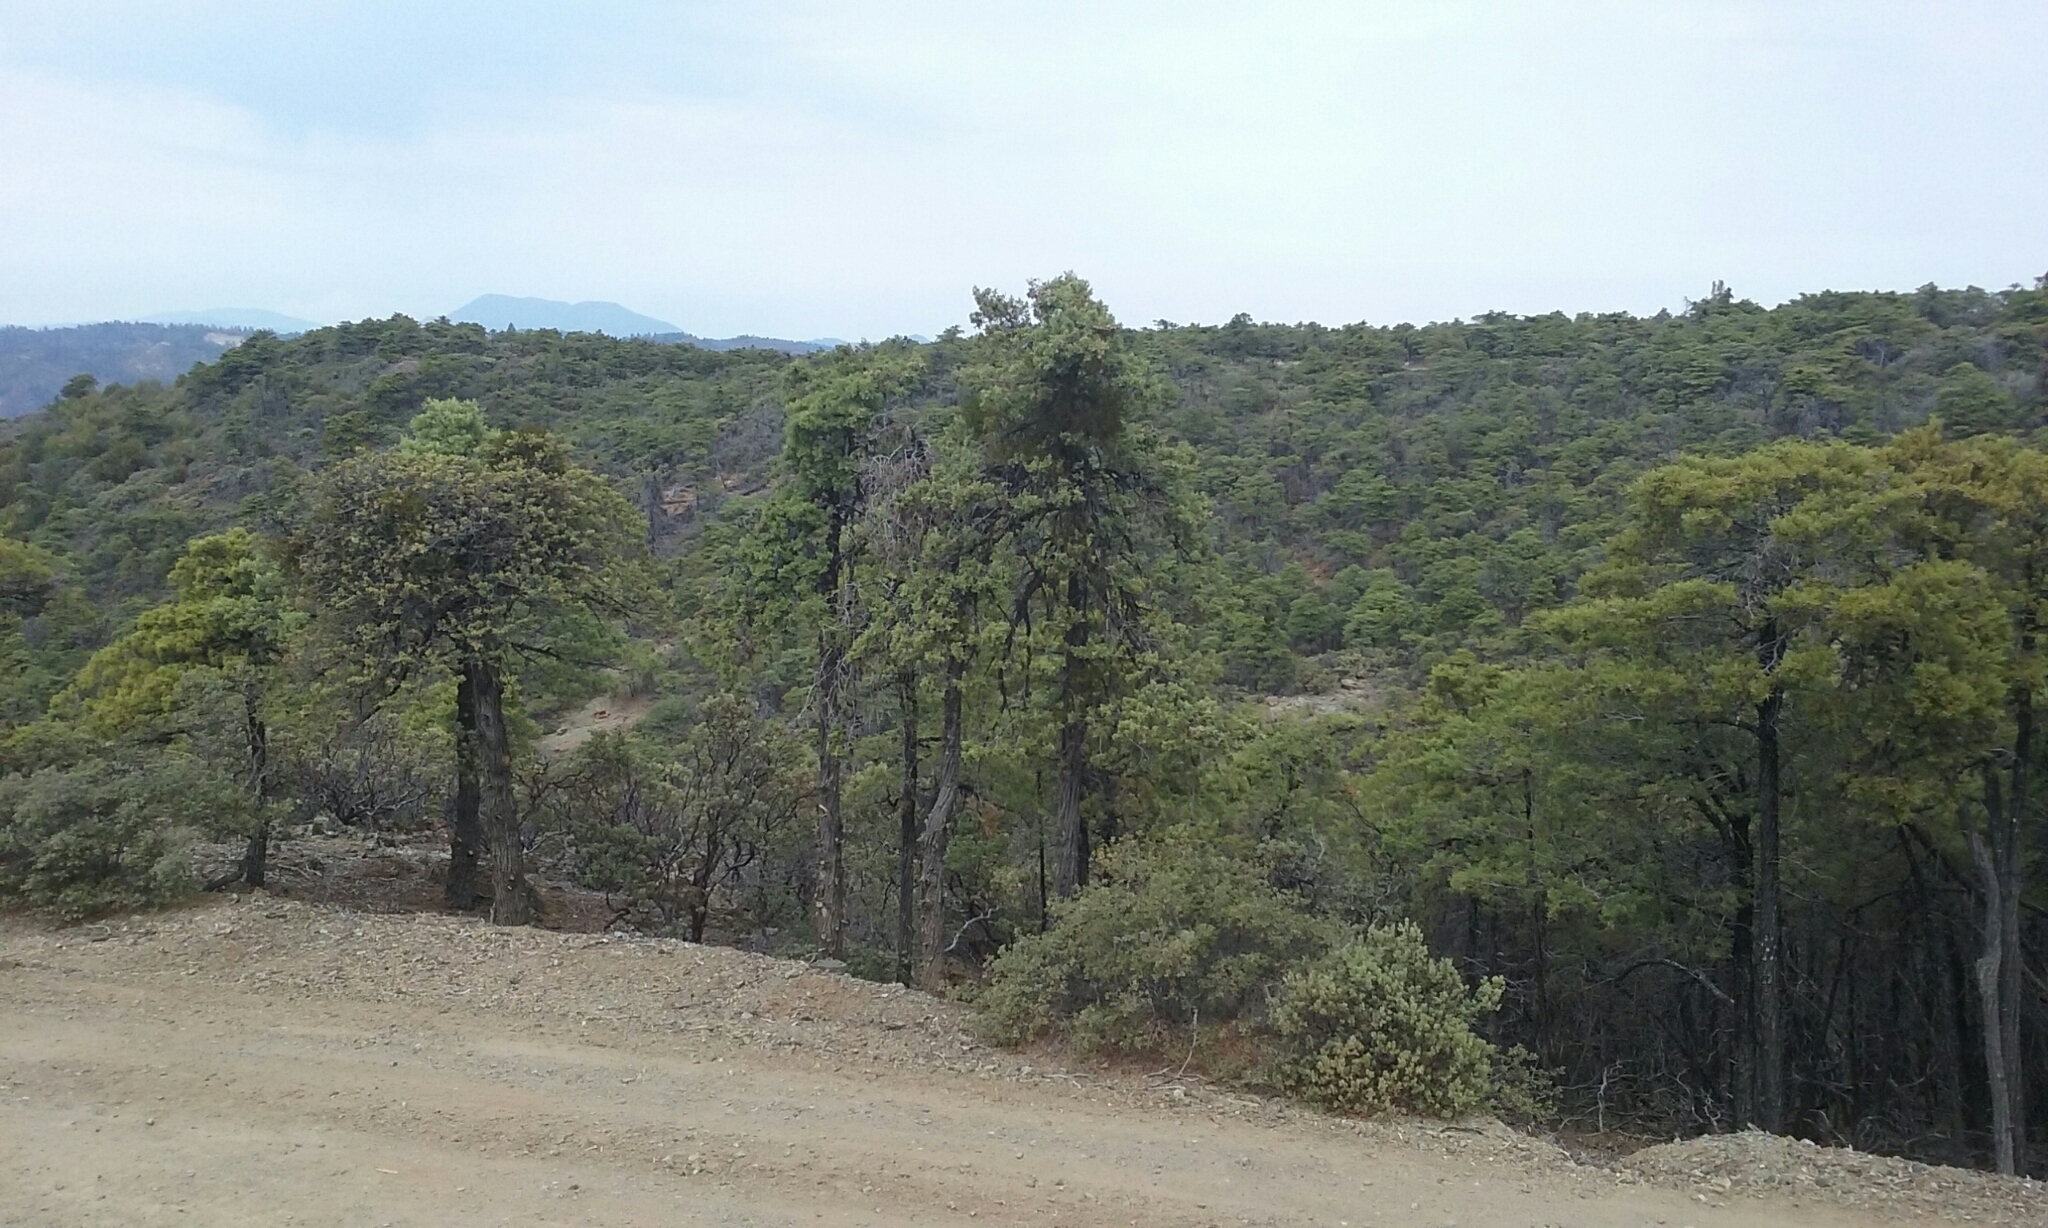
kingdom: Plantae
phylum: Tracheophyta
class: Pinopsida
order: Pinales
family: Cupressaceae
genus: Cupressus
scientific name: Cupressus sargentii
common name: Sargent cypress
